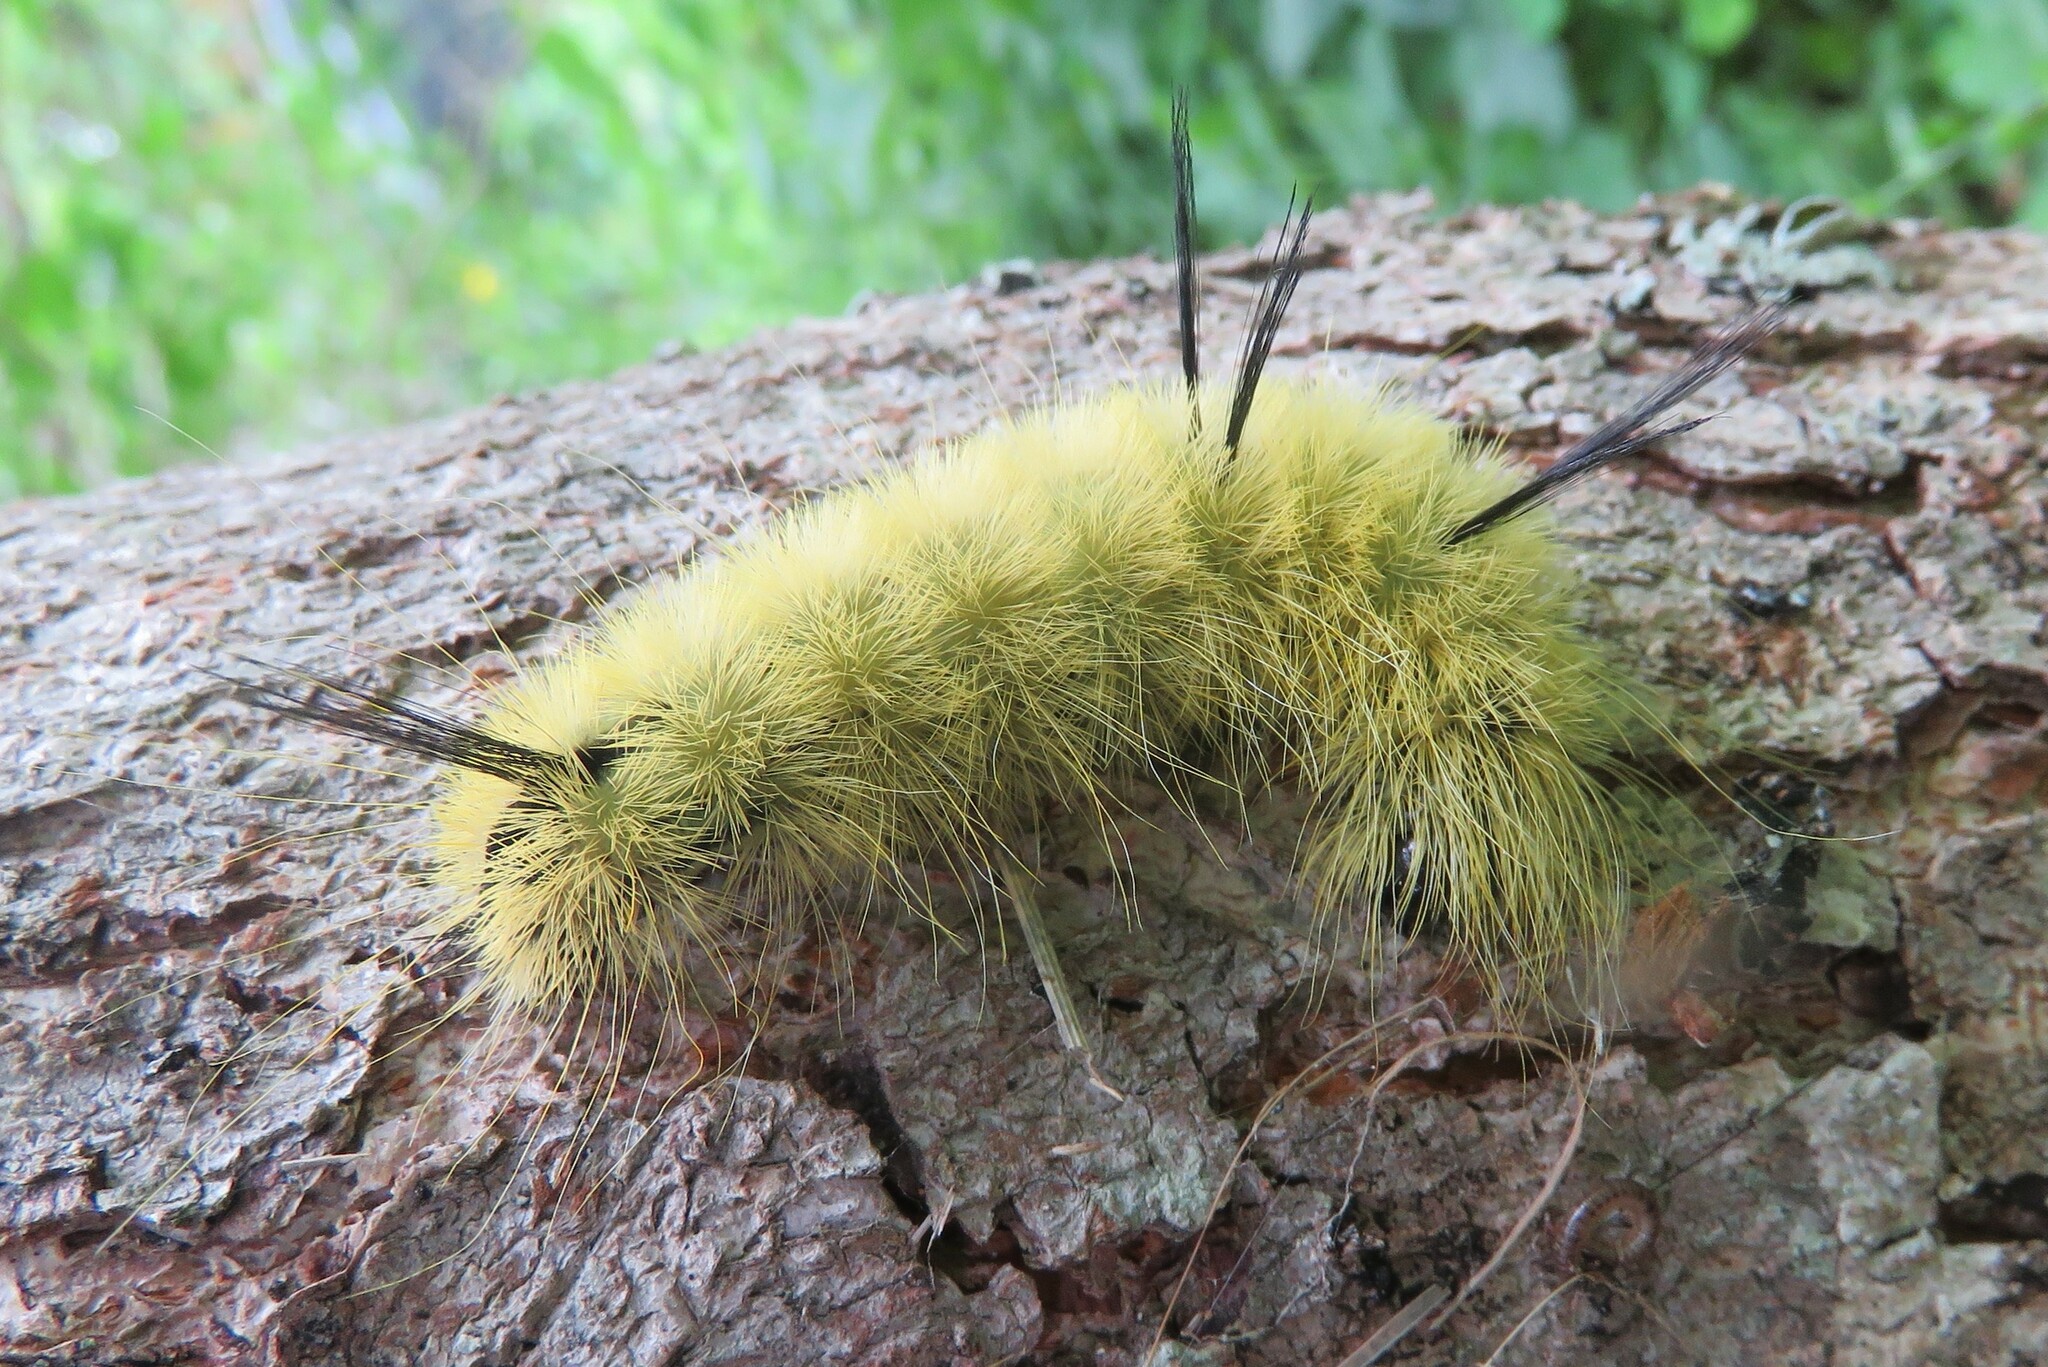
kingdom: Animalia
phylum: Arthropoda
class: Insecta
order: Lepidoptera
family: Noctuidae
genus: Acronicta
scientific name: Acronicta americana
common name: American dagger
